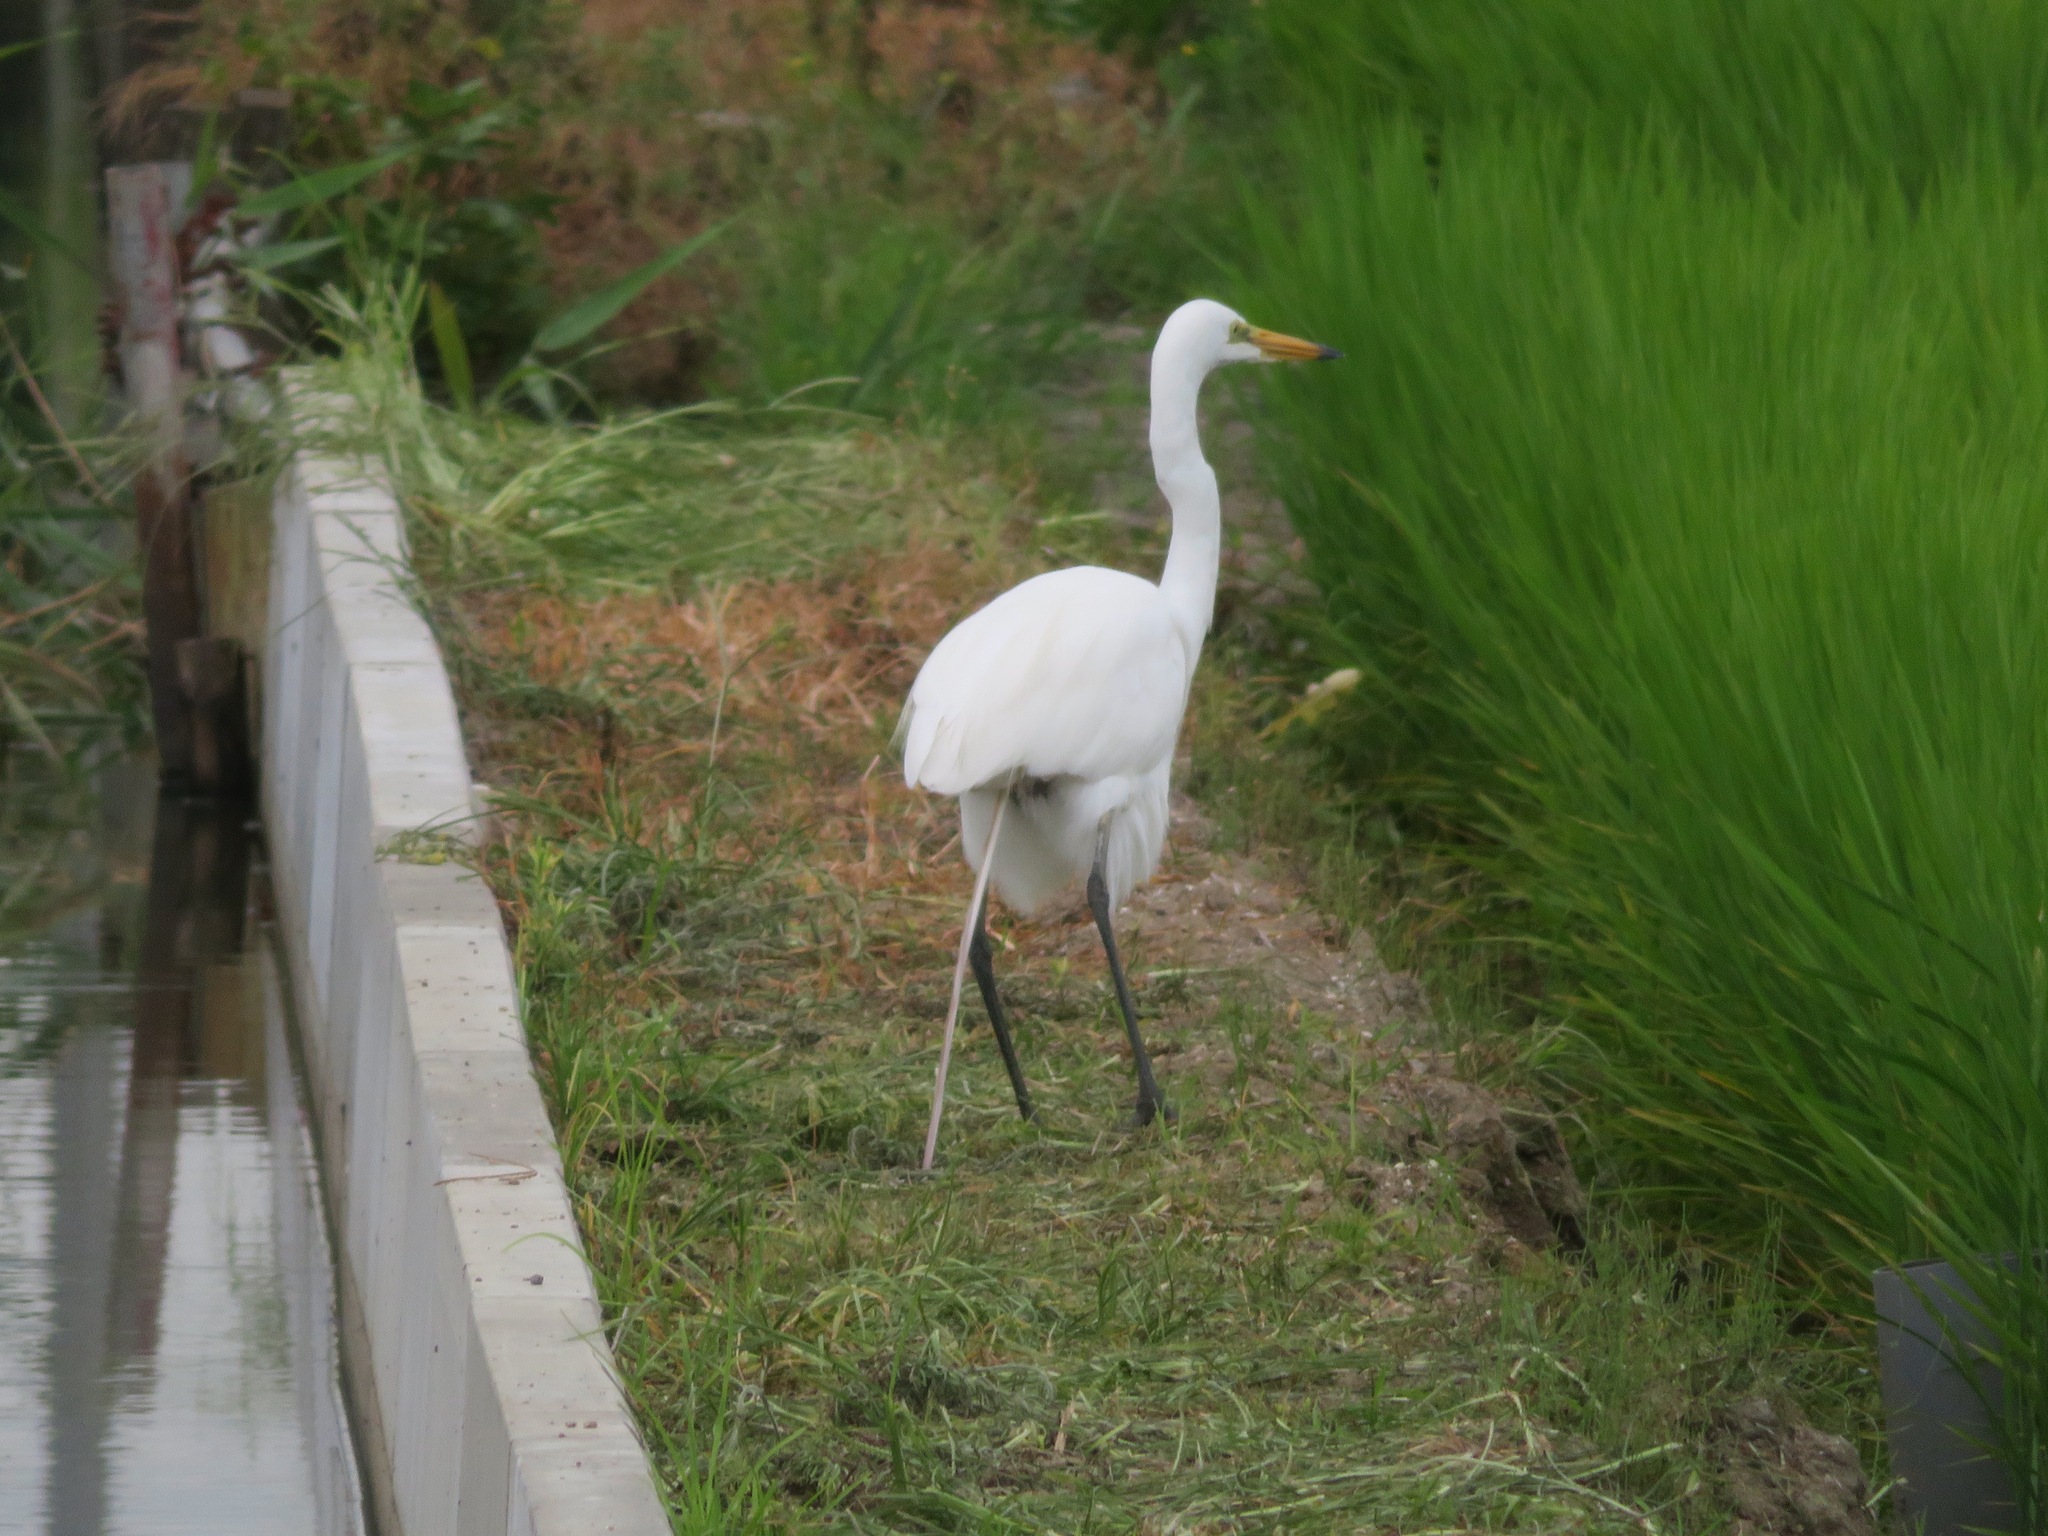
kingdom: Animalia
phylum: Chordata
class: Aves
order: Pelecaniformes
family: Ardeidae
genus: Ardea
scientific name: Ardea alba
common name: Great egret
